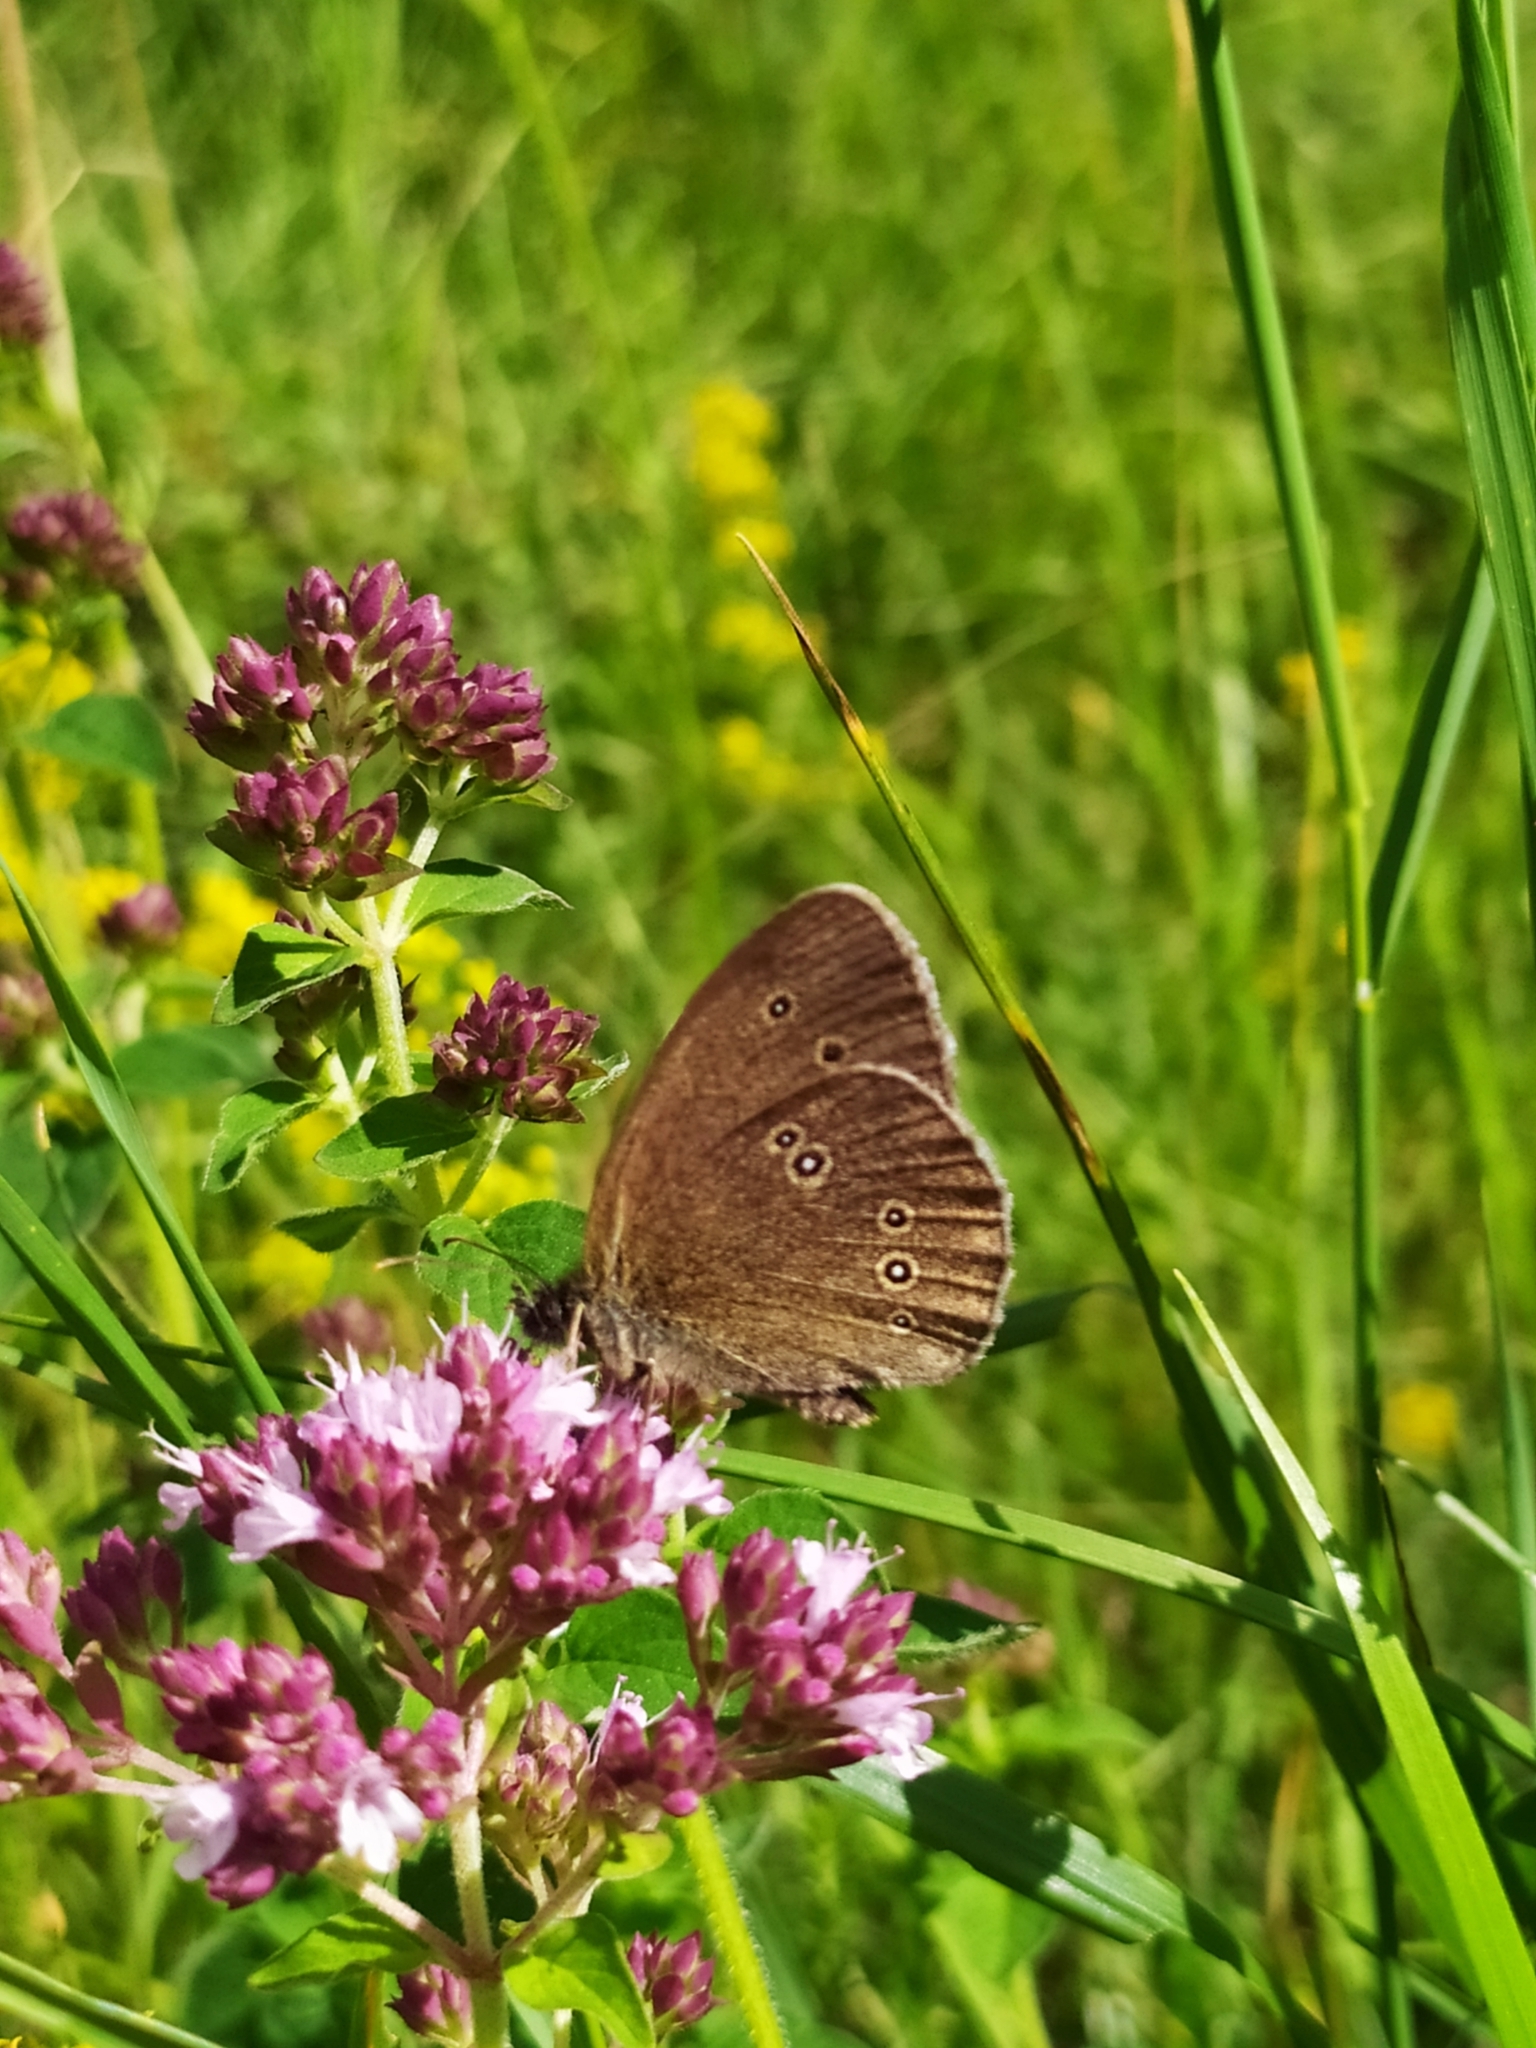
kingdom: Animalia
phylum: Arthropoda
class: Insecta
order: Lepidoptera
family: Nymphalidae
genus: Aphantopus
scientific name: Aphantopus hyperantus
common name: Ringlet
